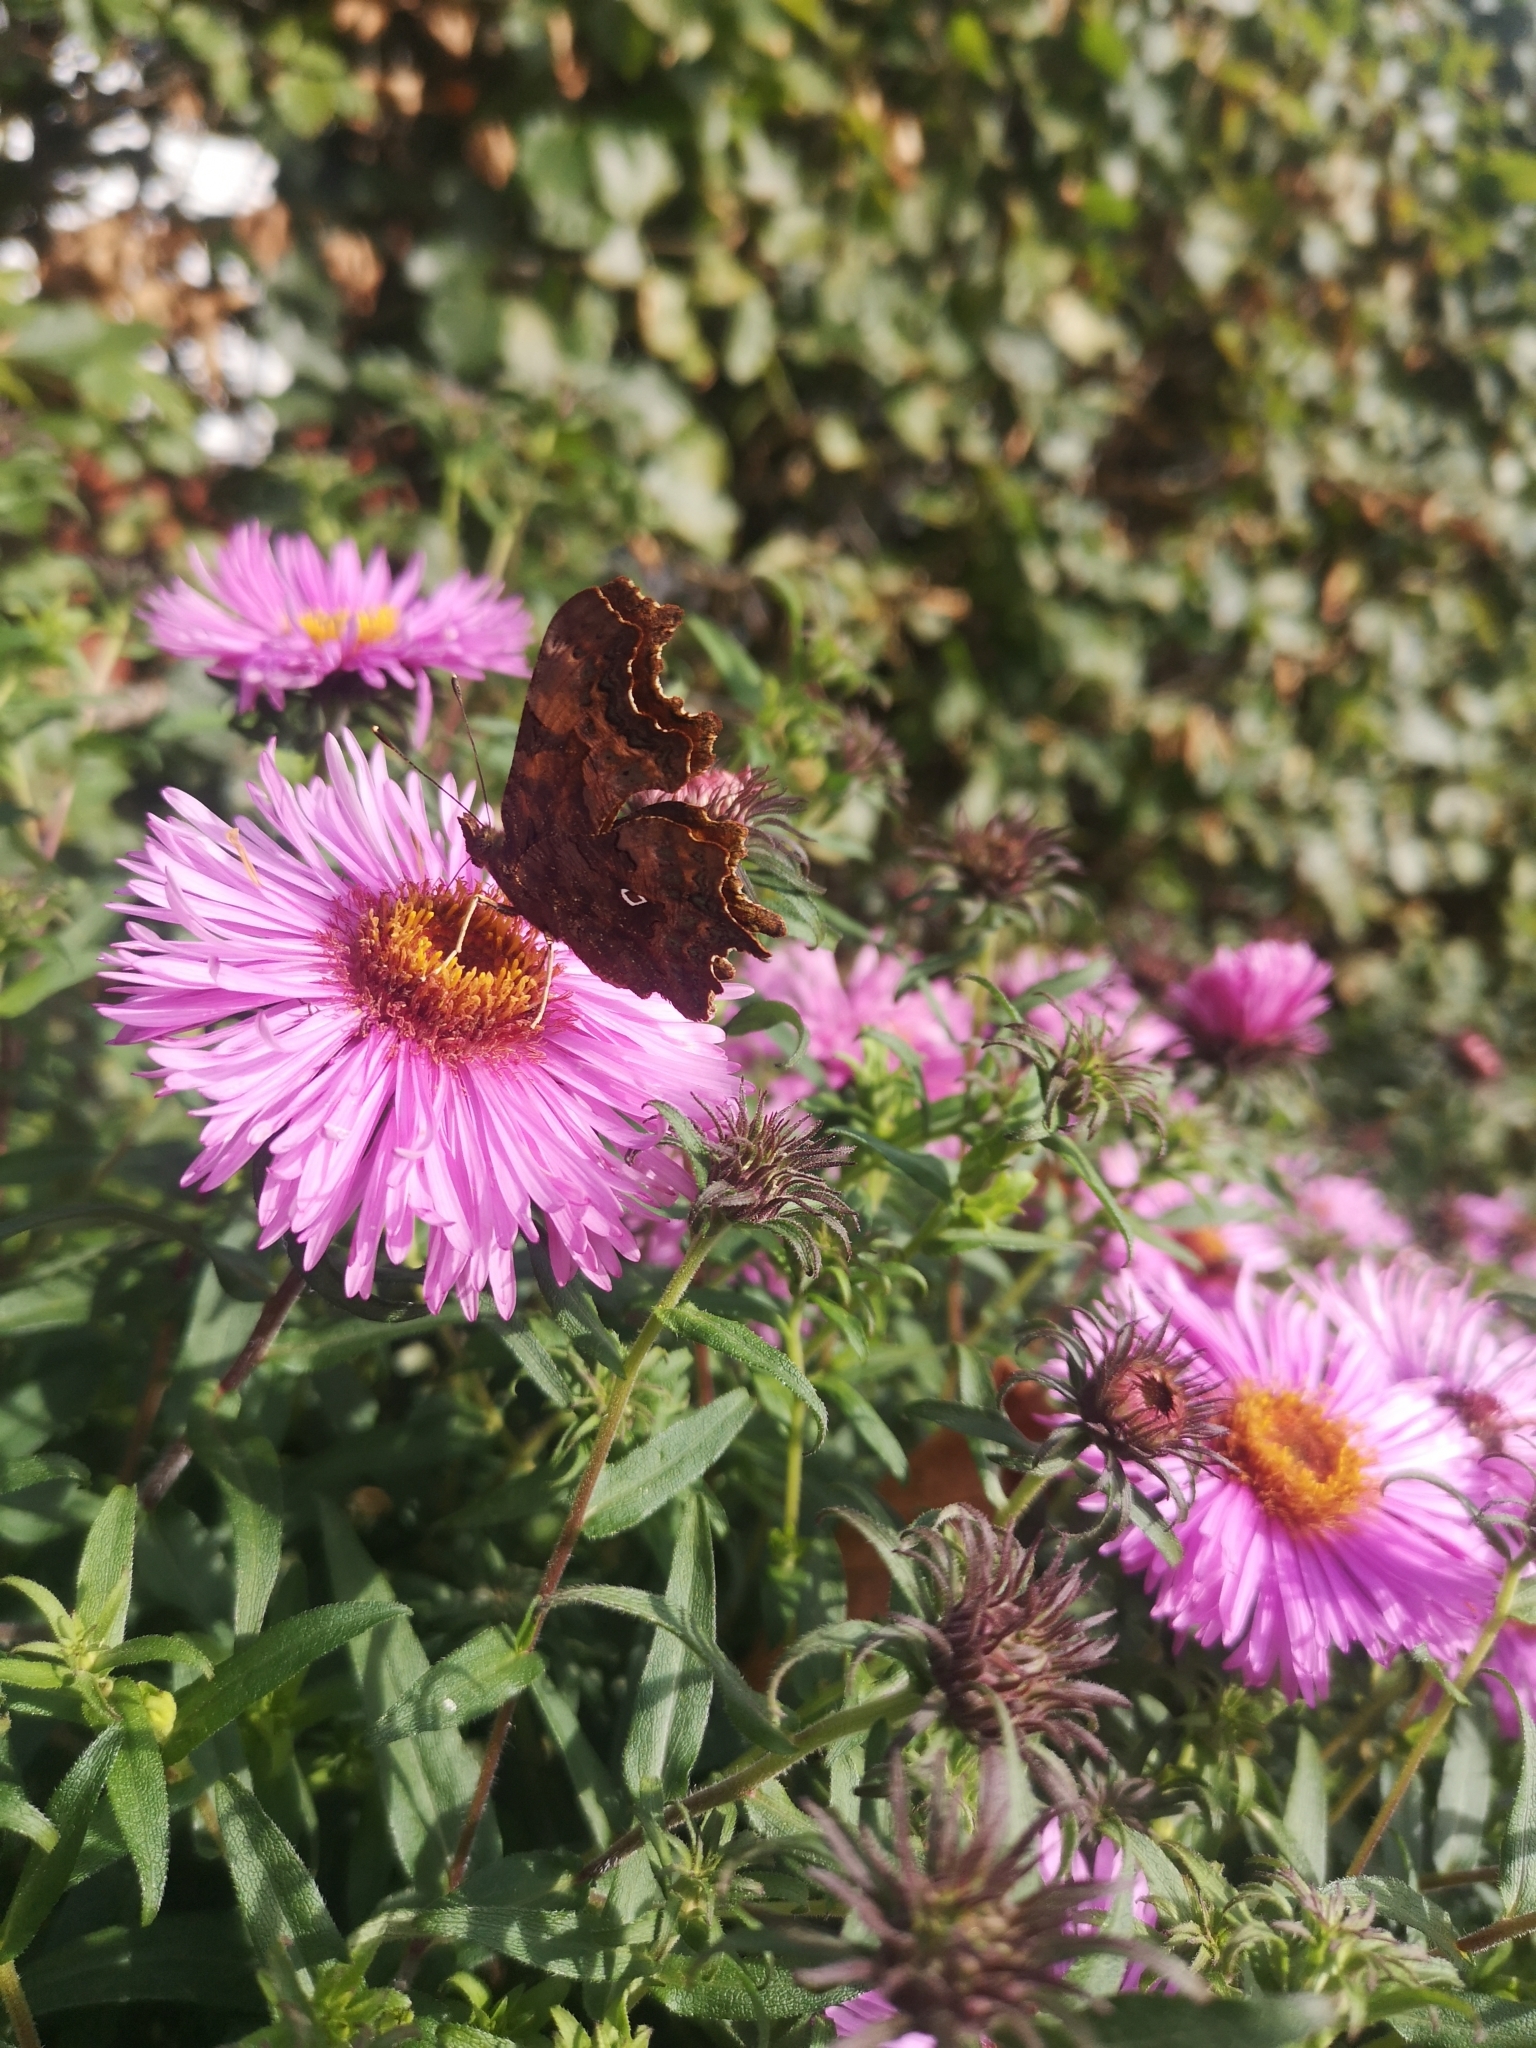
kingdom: Animalia
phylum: Arthropoda
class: Insecta
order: Lepidoptera
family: Nymphalidae
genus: Polygonia
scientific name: Polygonia c-album
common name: Comma
